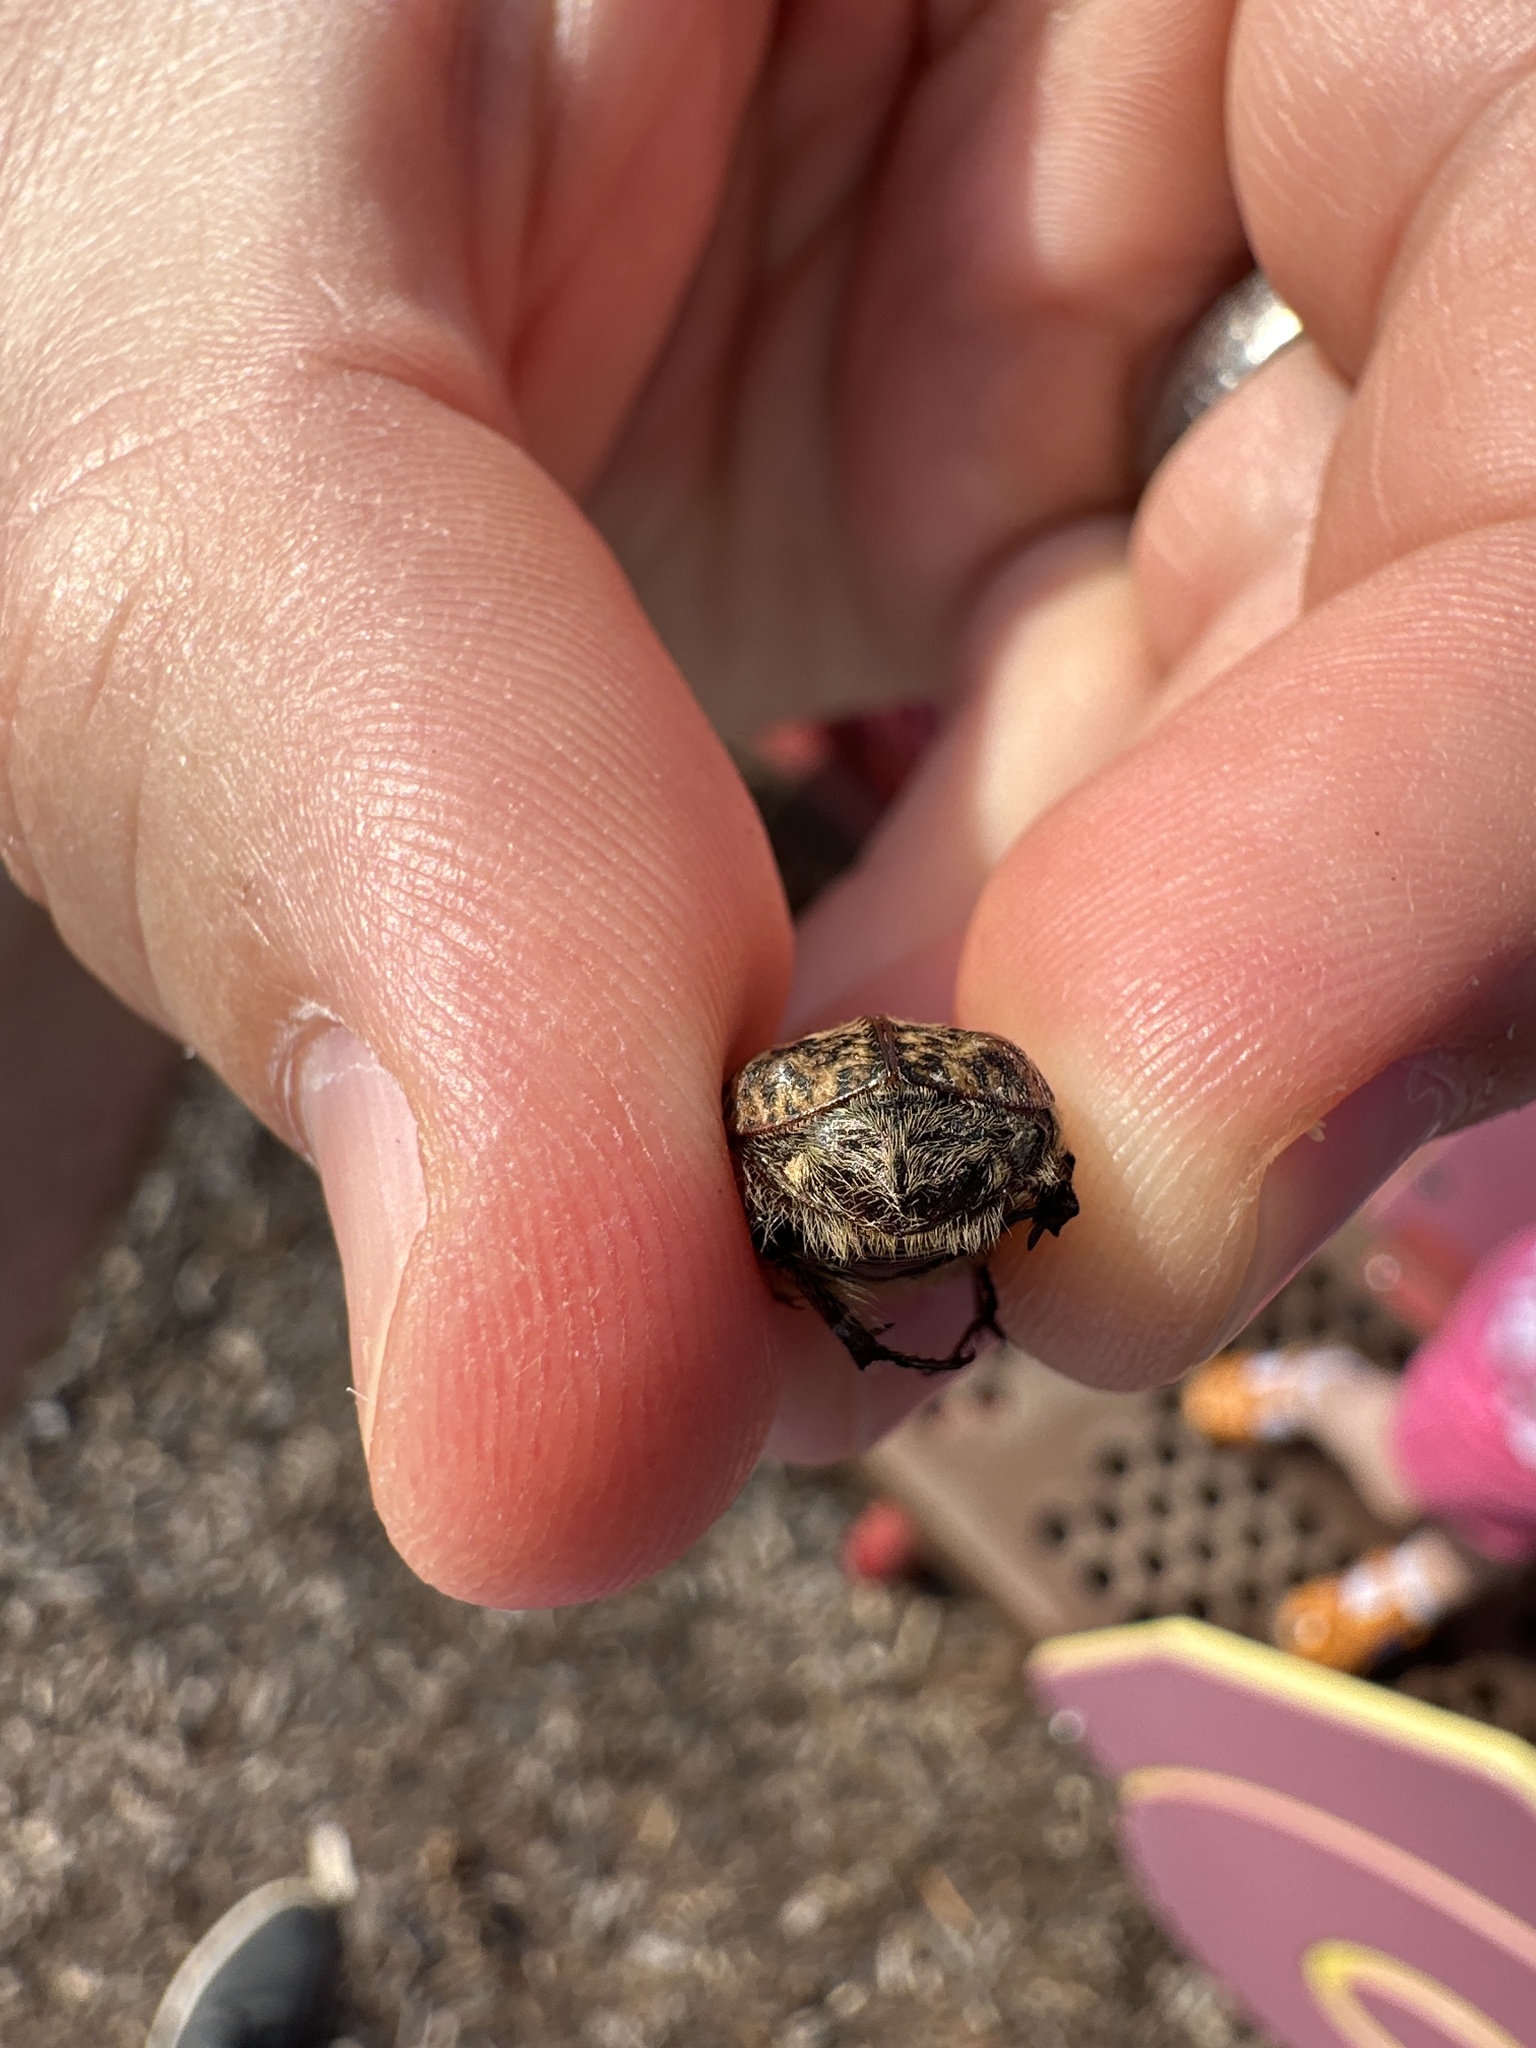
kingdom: Animalia
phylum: Arthropoda
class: Insecta
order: Coleoptera
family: Scarabaeidae
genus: Euphoria
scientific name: Euphoria inda
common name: Bumble flower beetle
